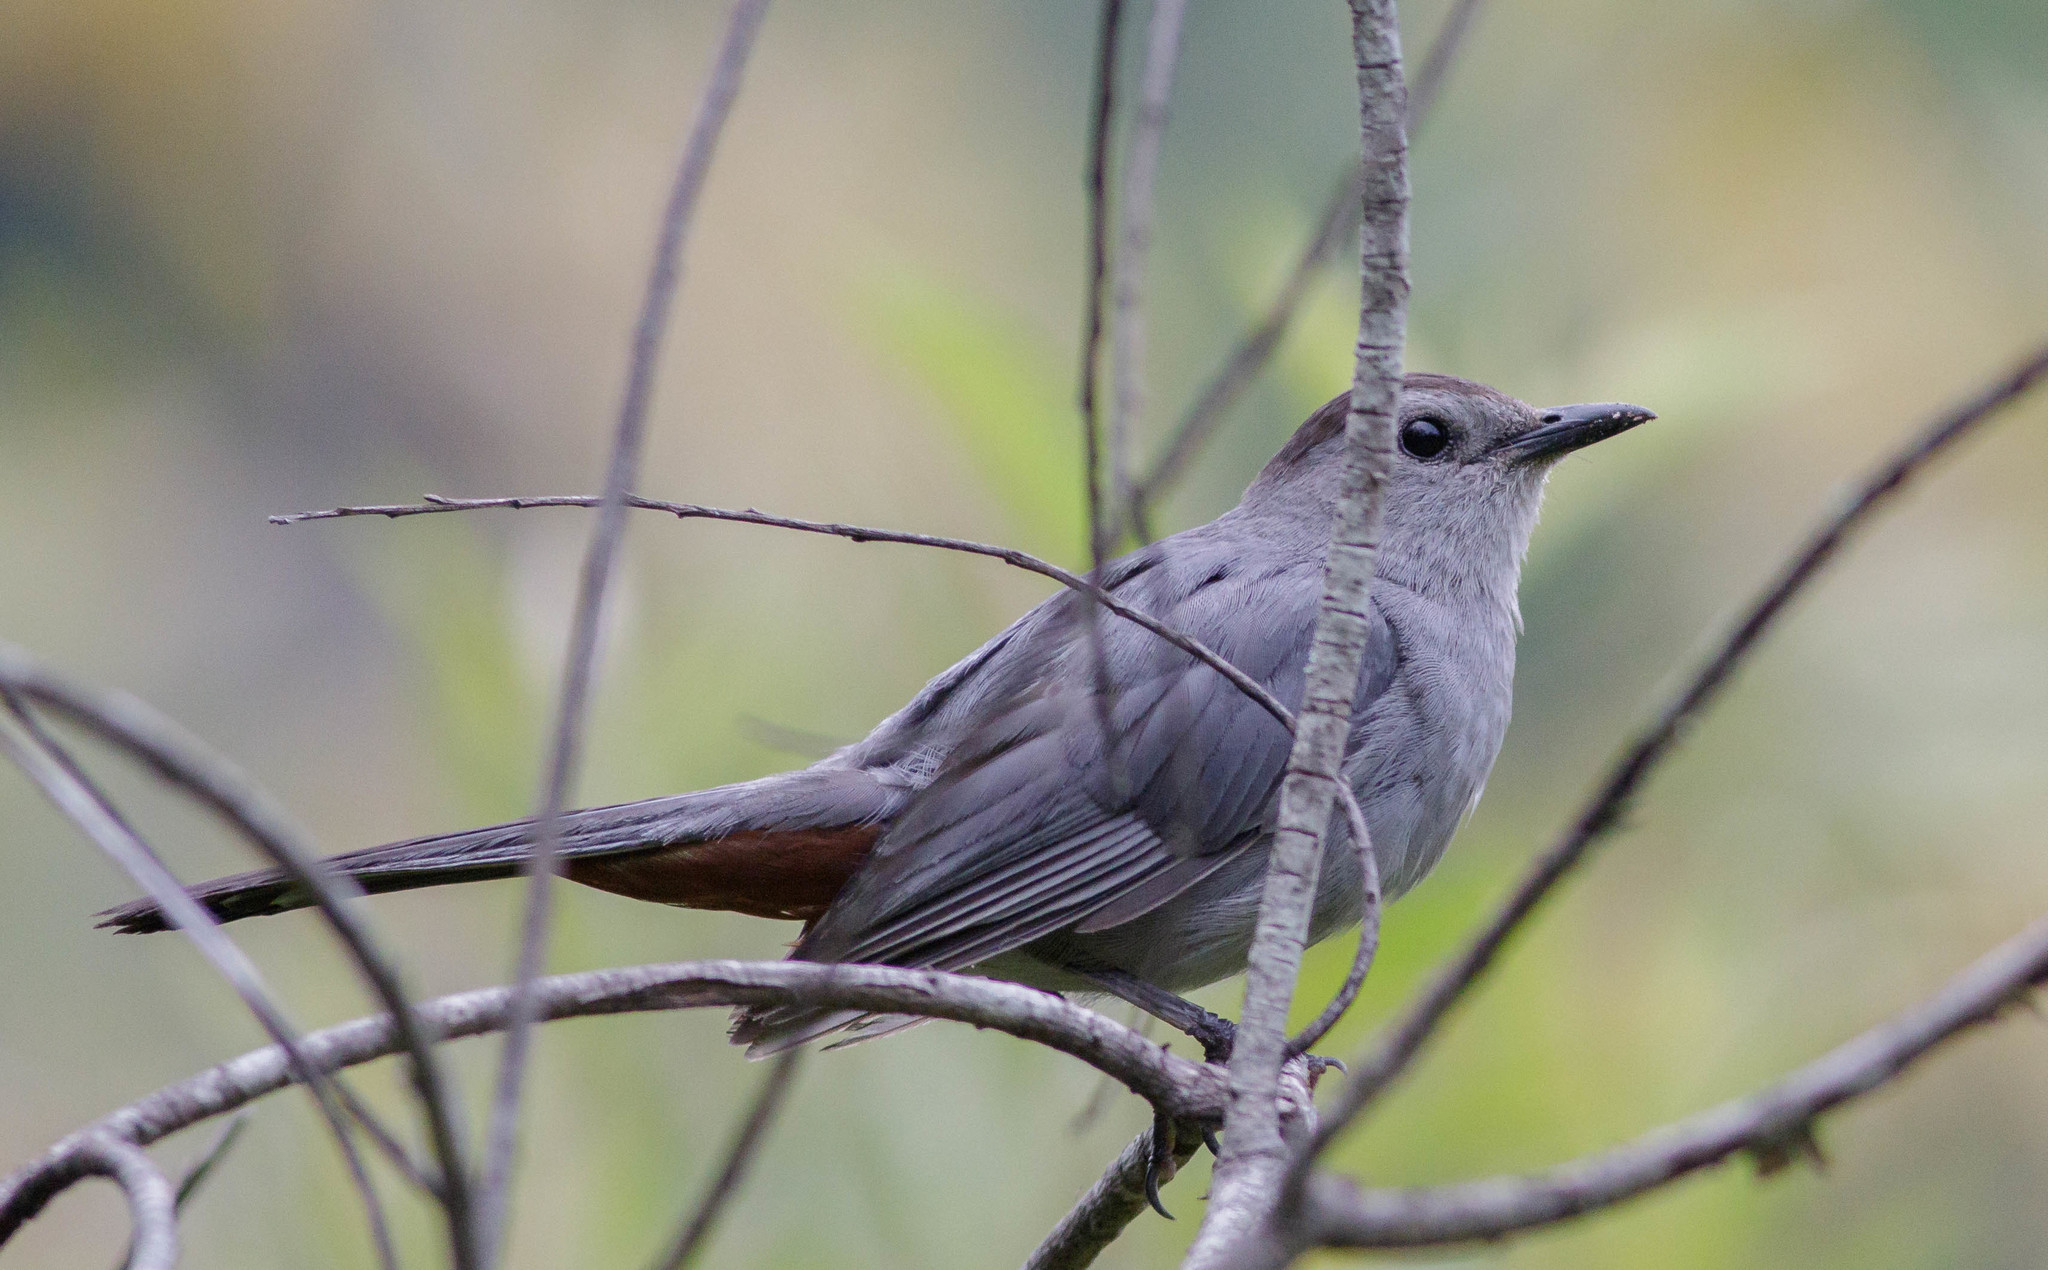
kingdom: Animalia
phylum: Chordata
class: Aves
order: Passeriformes
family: Mimidae
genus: Dumetella
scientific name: Dumetella carolinensis
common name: Gray catbird
